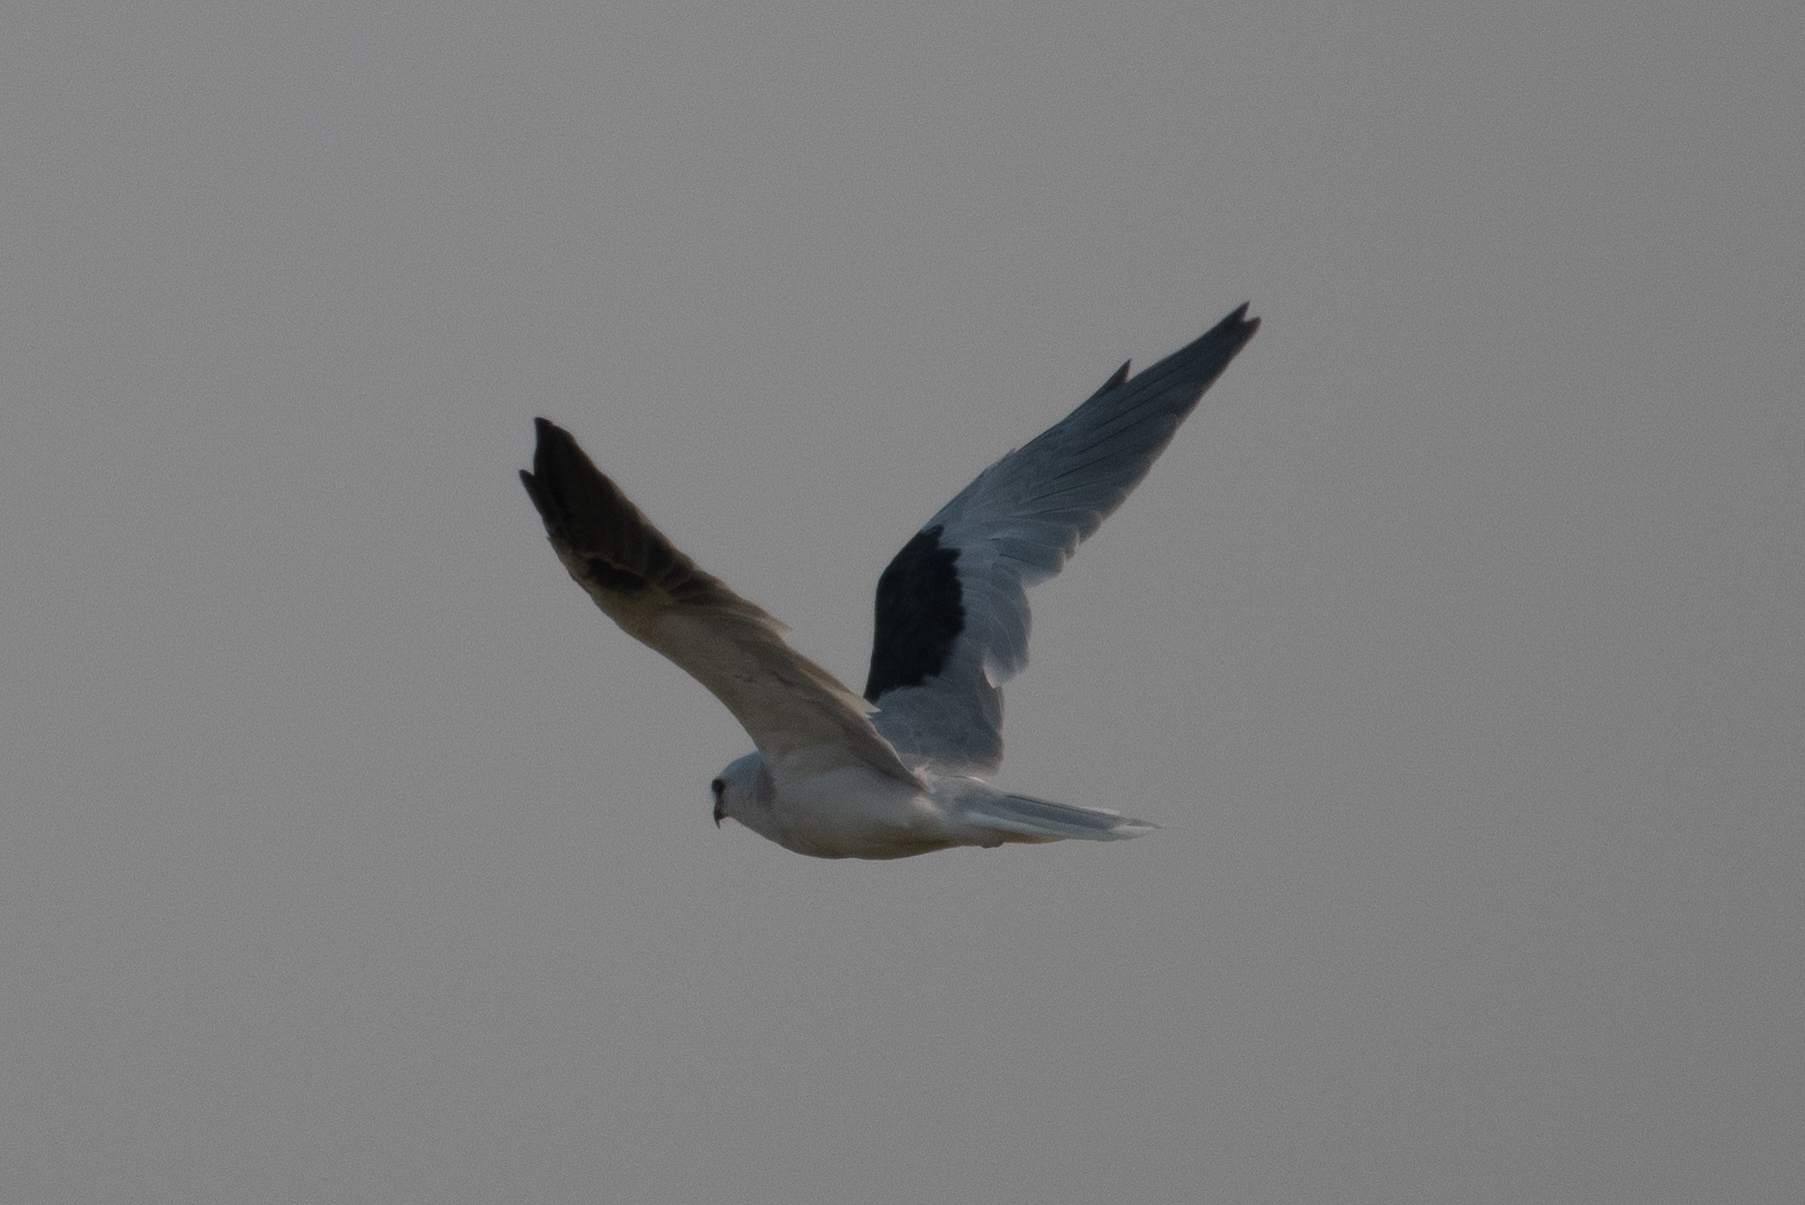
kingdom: Animalia
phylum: Chordata
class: Aves
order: Accipitriformes
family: Accipitridae
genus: Elanus
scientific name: Elanus leucurus
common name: White-tailed kite
